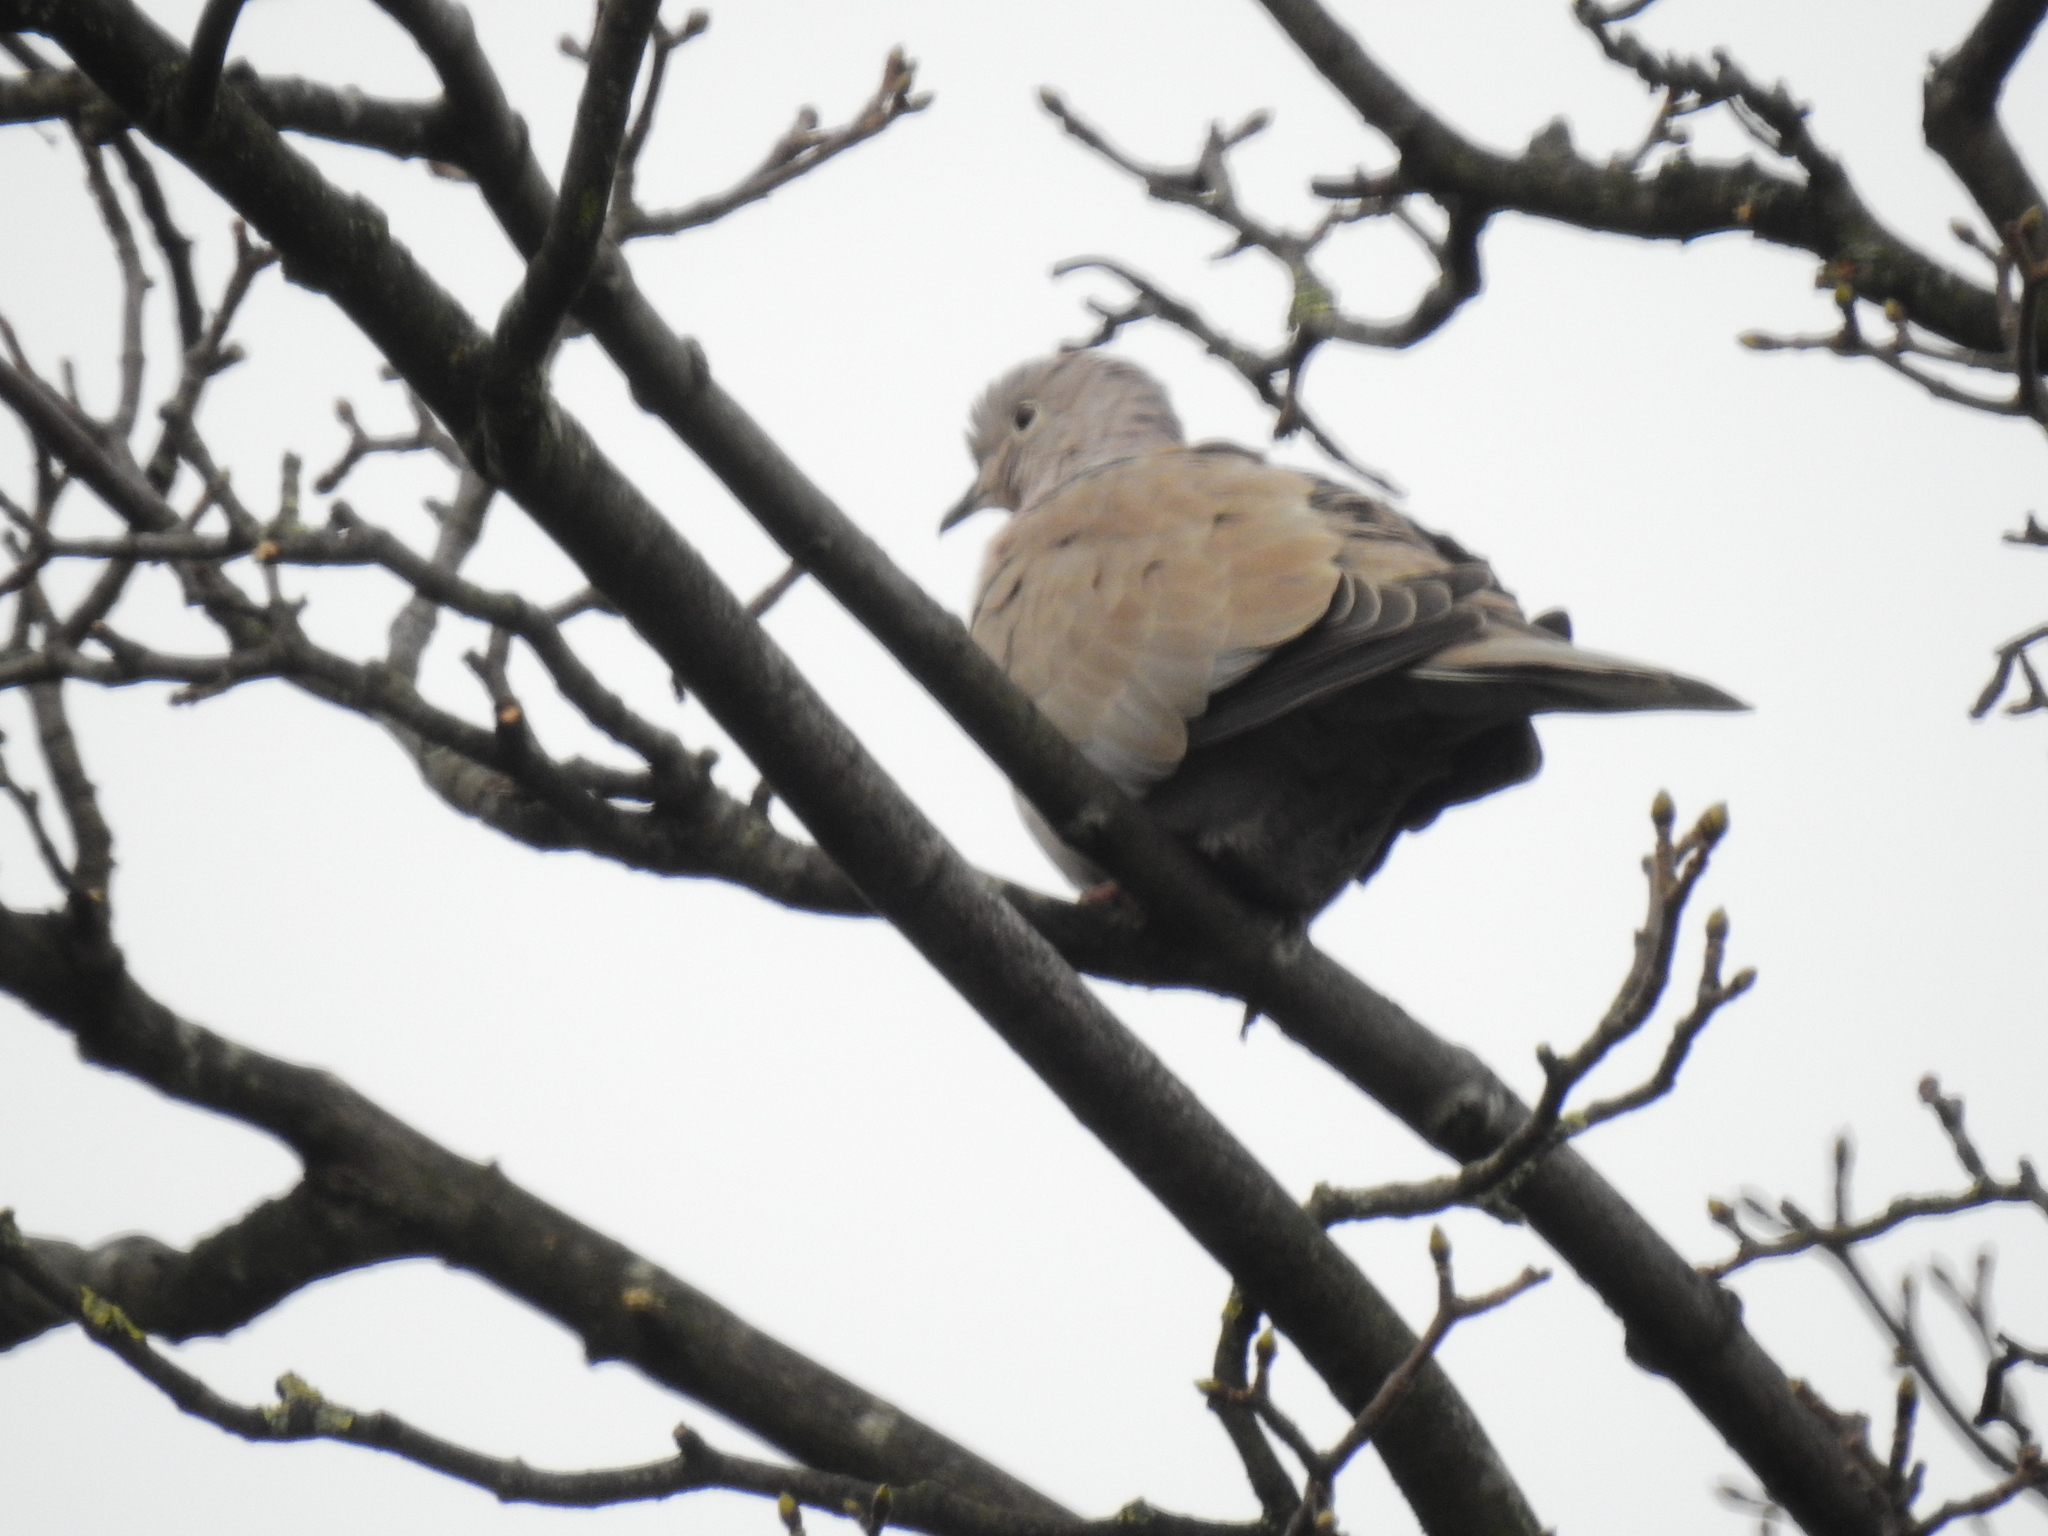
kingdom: Animalia
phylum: Chordata
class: Aves
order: Columbiformes
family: Columbidae
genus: Streptopelia
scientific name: Streptopelia decaocto
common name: Eurasian collared dove
